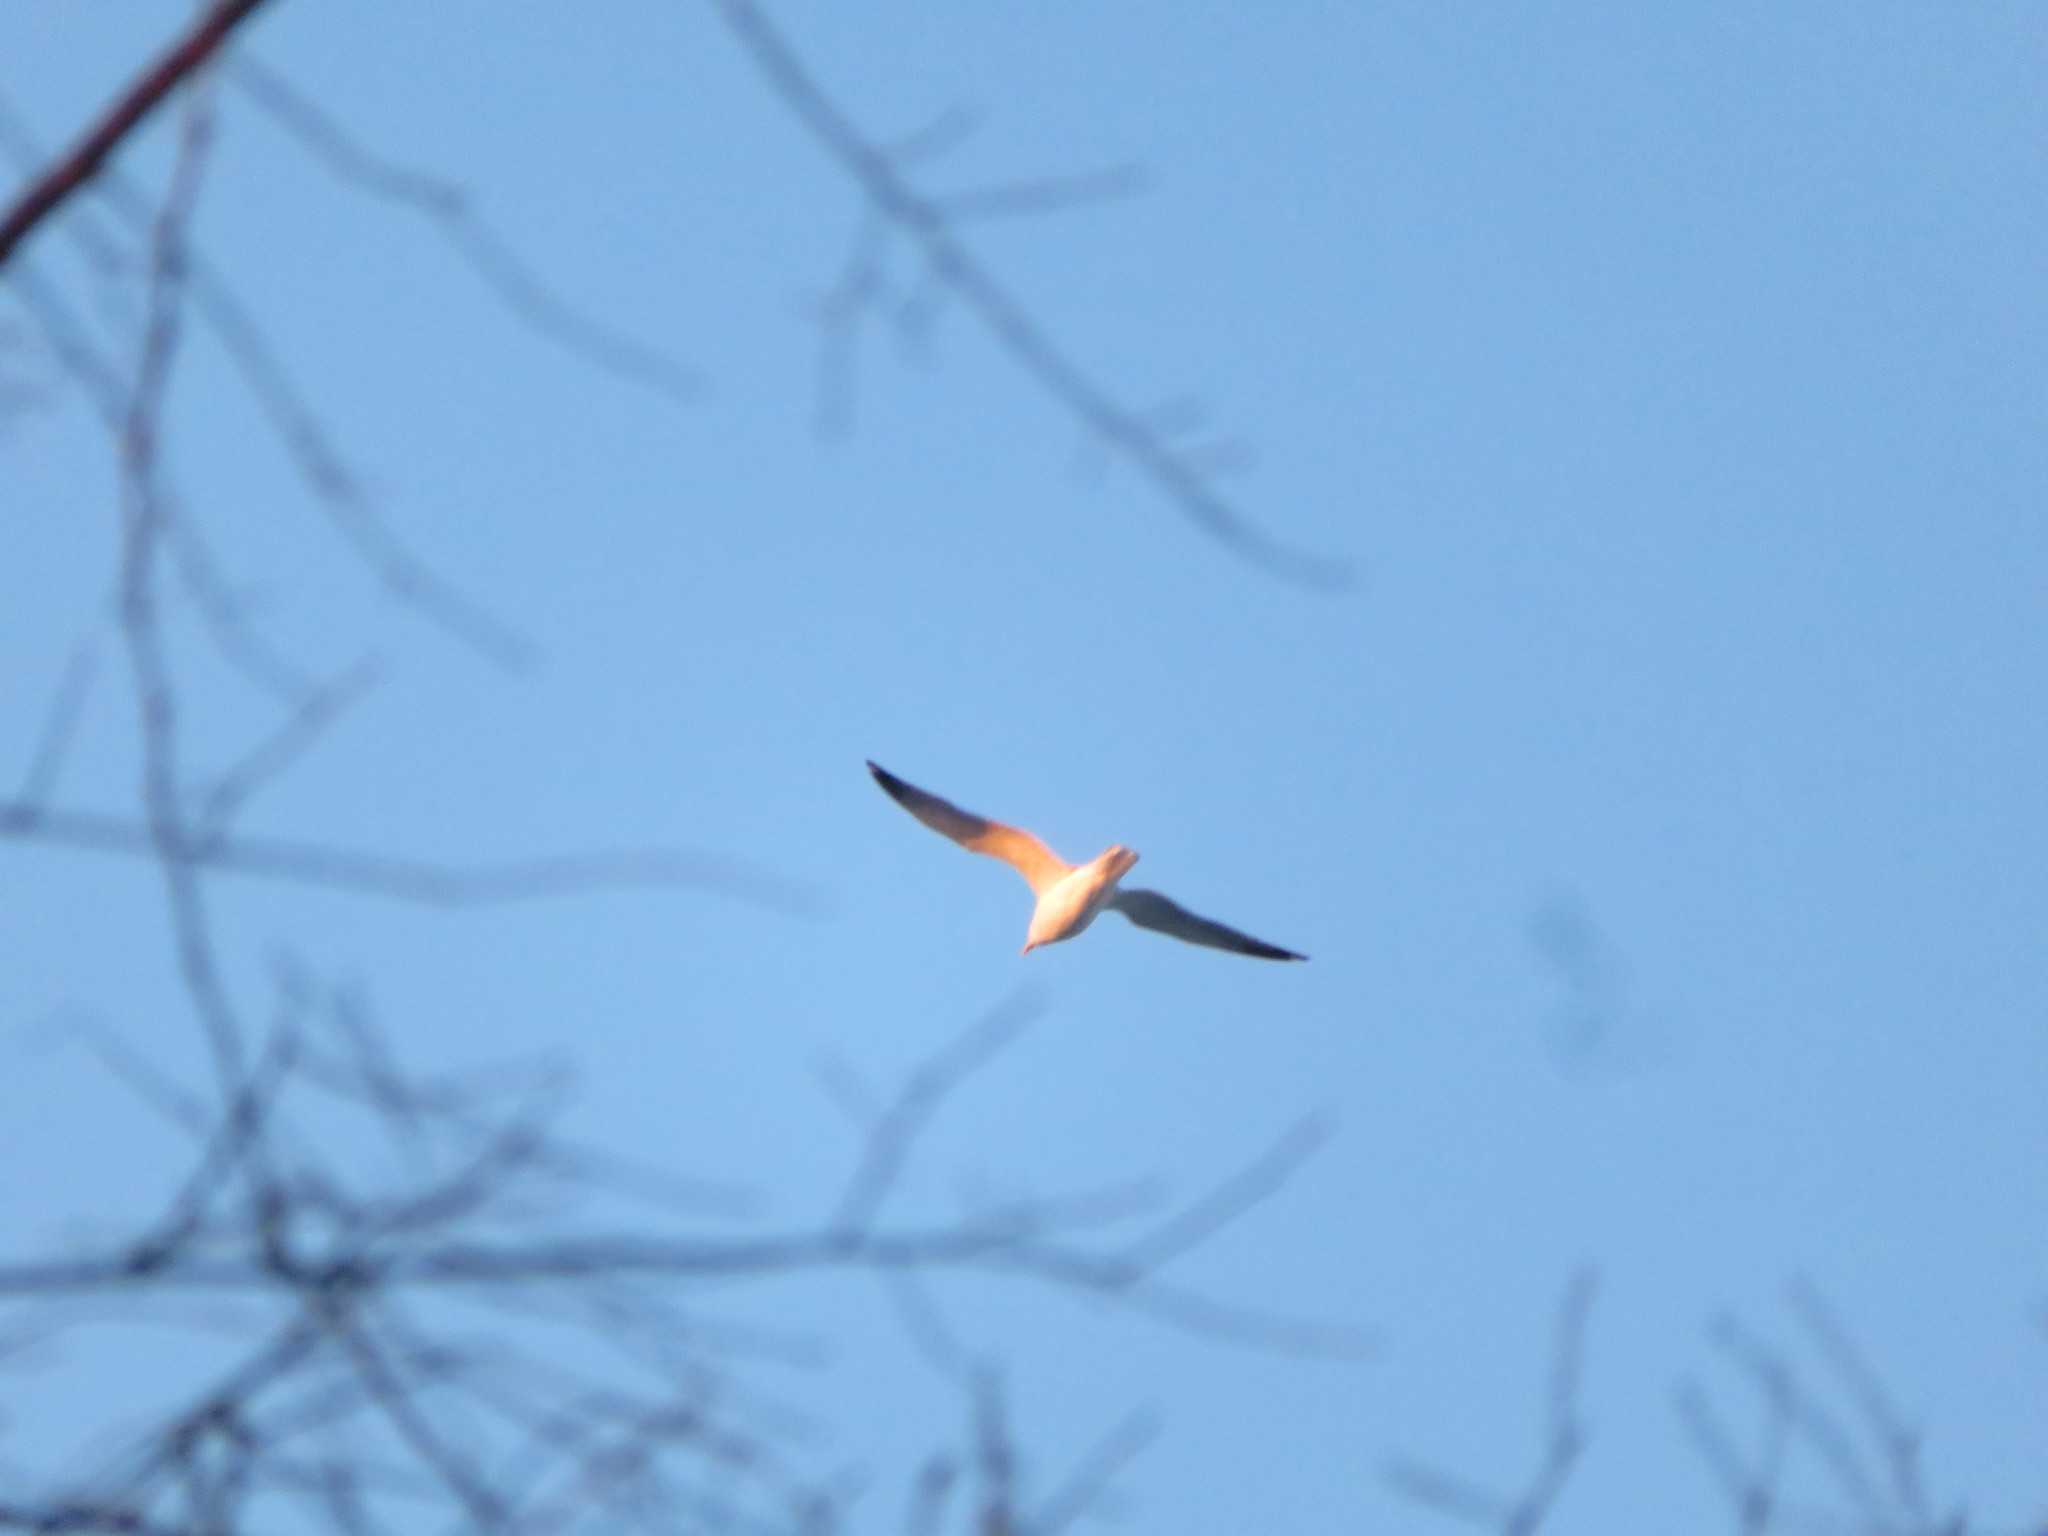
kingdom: Animalia
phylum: Chordata
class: Aves
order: Charadriiformes
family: Laridae
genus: Larus
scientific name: Larus argentatus
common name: Herring gull
